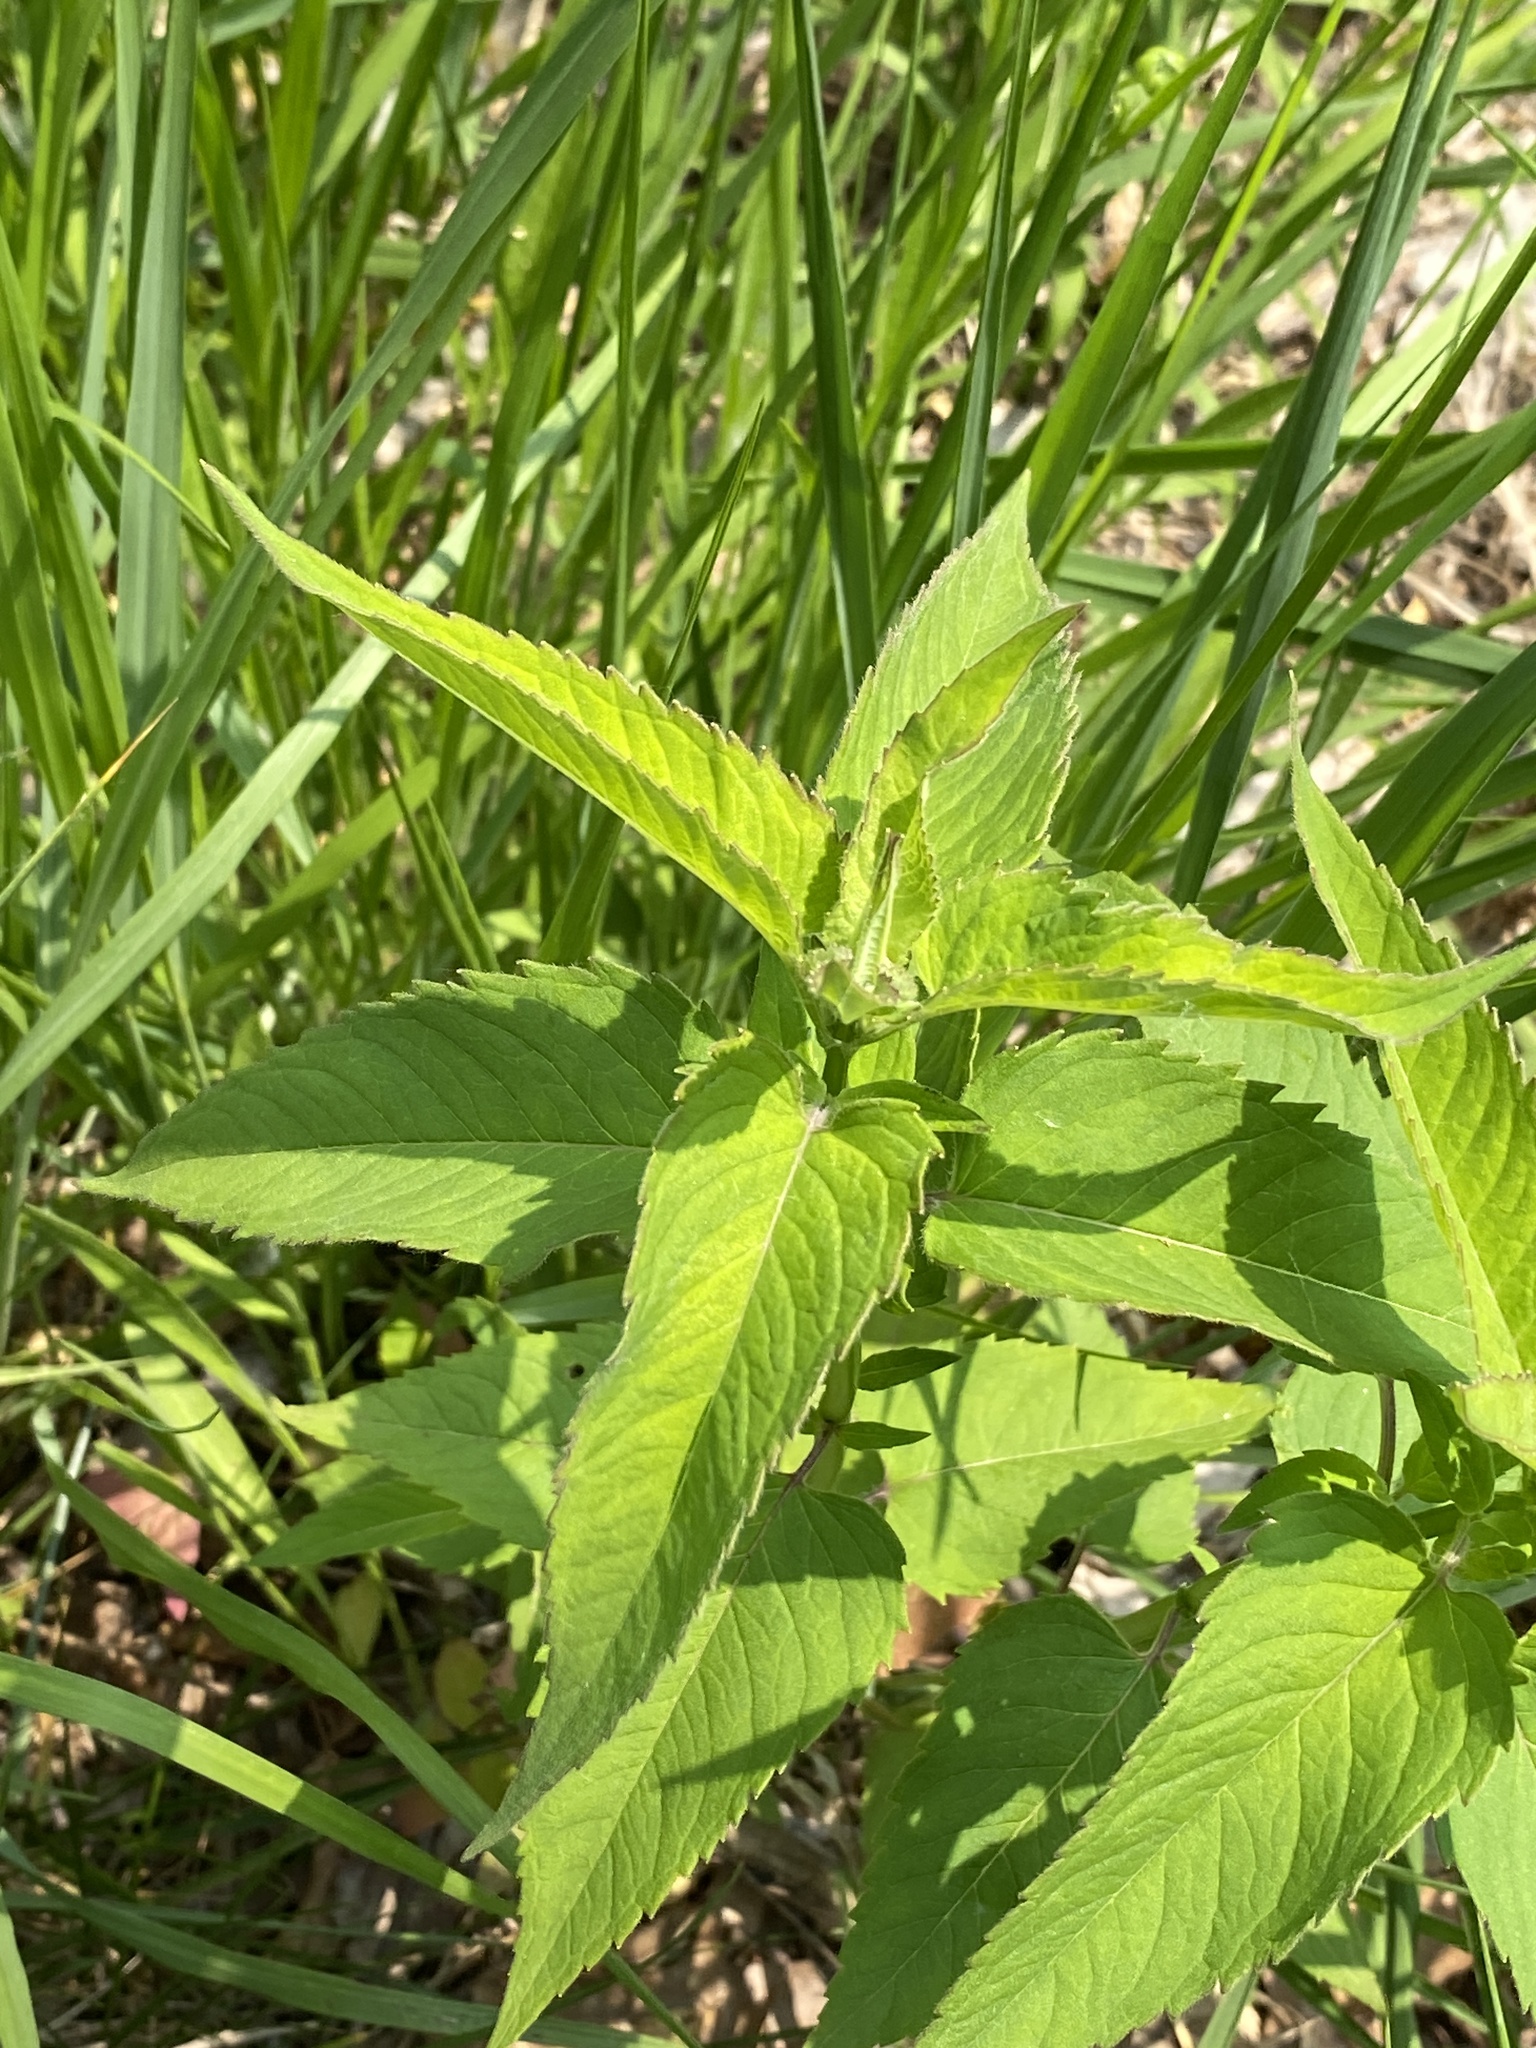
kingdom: Plantae
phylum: Tracheophyta
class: Magnoliopsida
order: Lamiales
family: Lamiaceae
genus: Monarda
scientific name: Monarda fistulosa
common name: Purple beebalm
